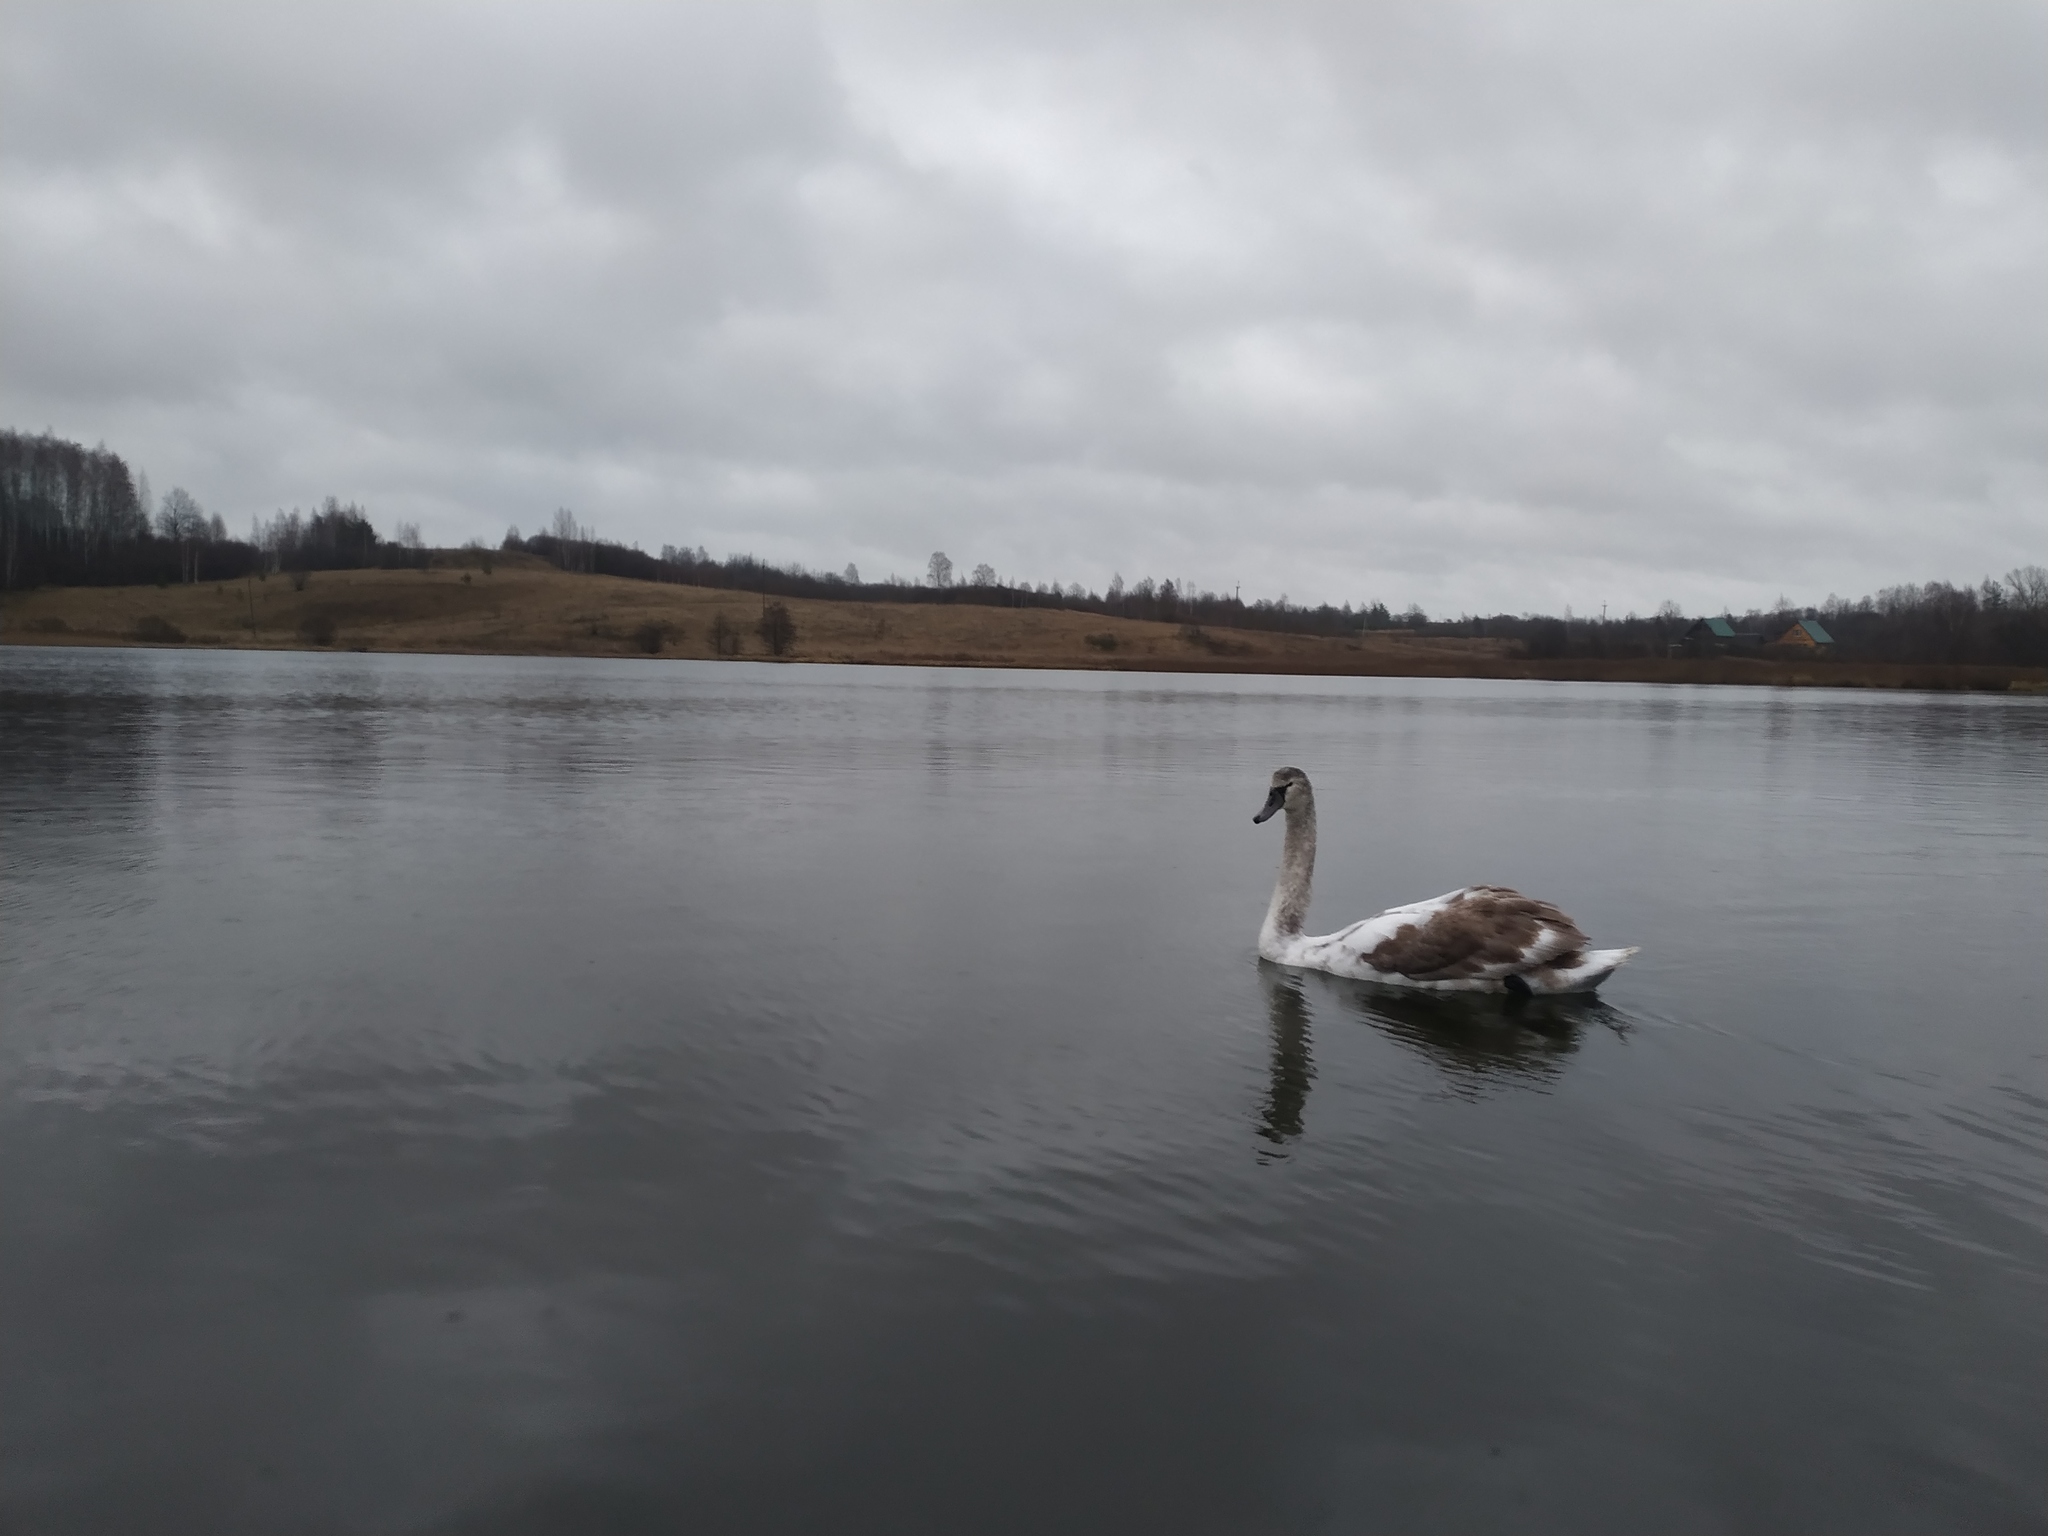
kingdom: Animalia
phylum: Chordata
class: Aves
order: Anseriformes
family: Anatidae
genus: Cygnus
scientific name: Cygnus olor
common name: Mute swan
